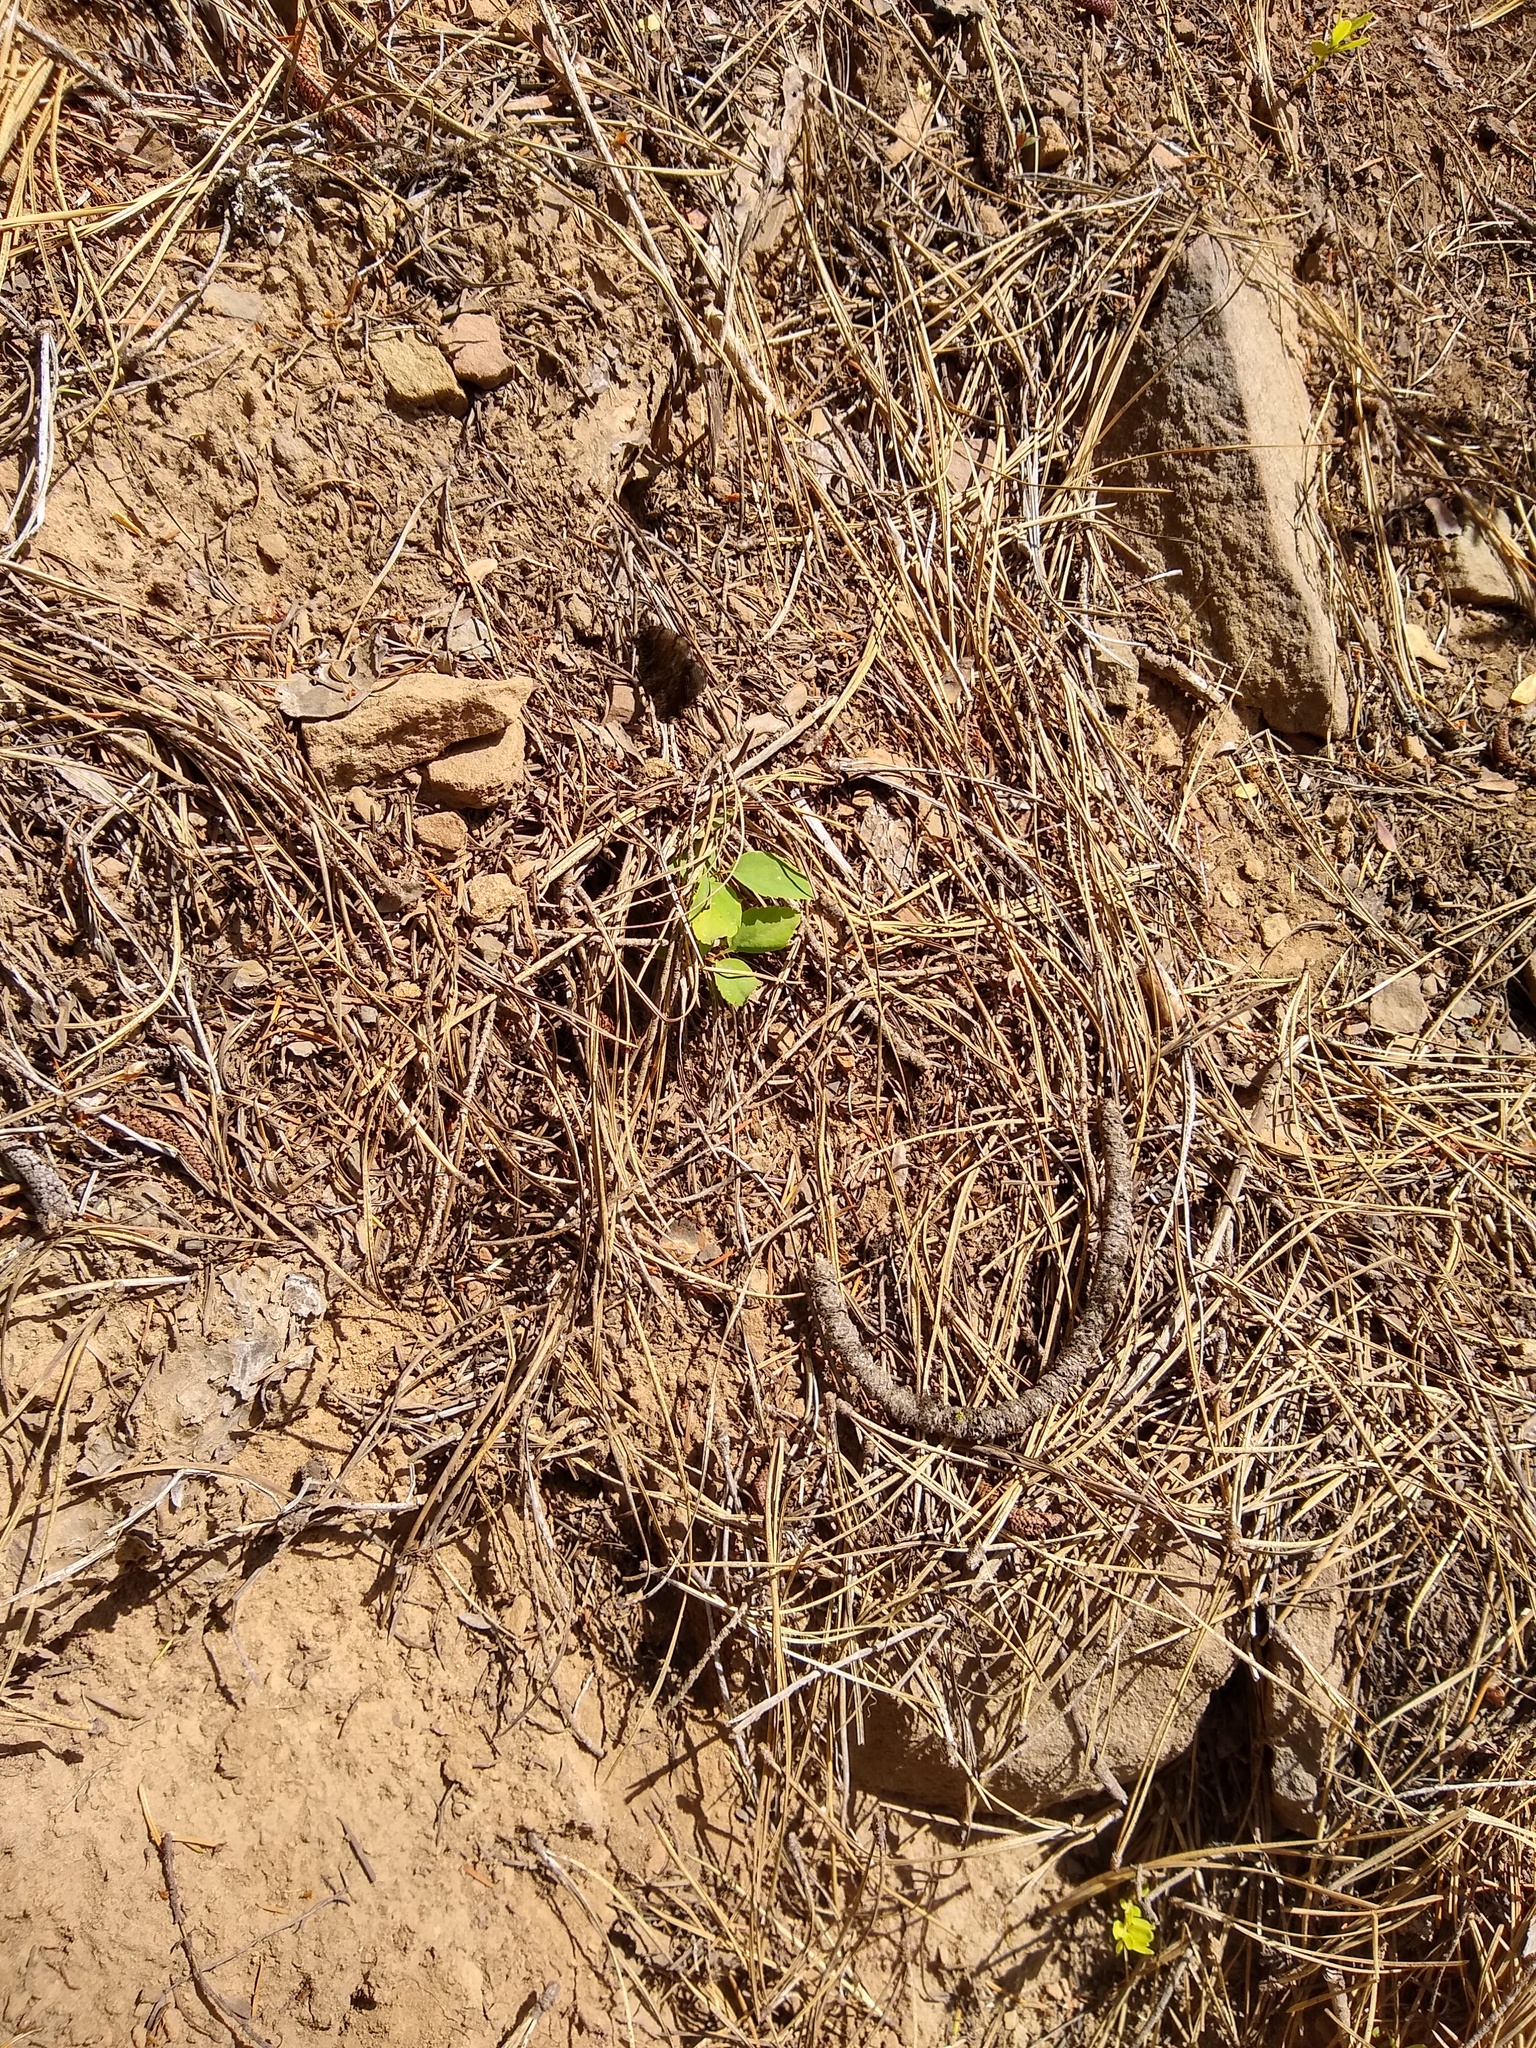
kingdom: Animalia
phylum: Arthropoda
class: Insecta
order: Lepidoptera
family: Nymphalidae
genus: Oeneis
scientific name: Oeneis nevadensis
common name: Great arctic
